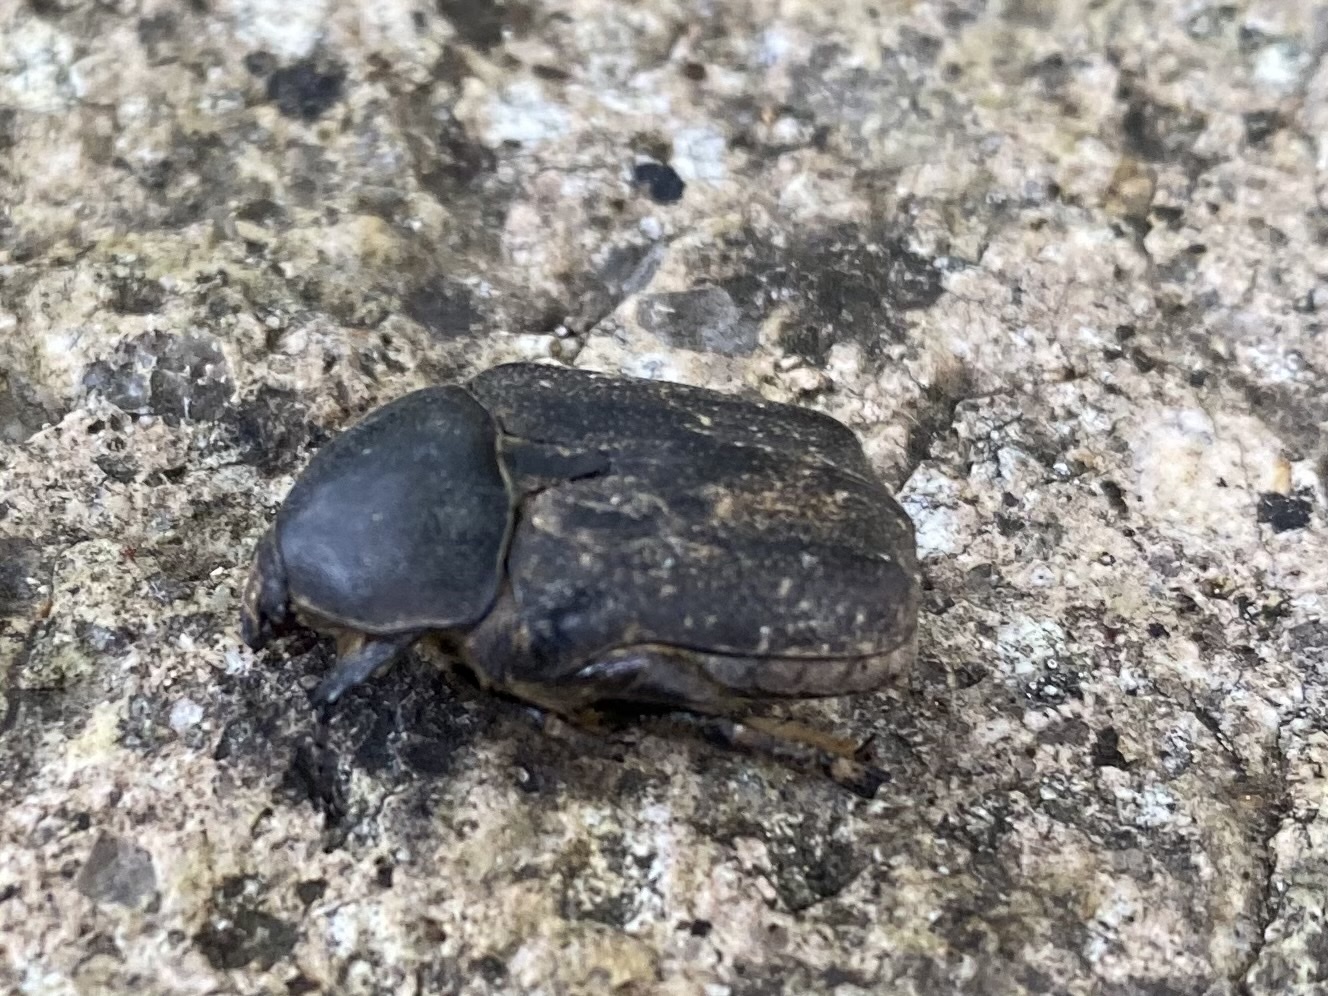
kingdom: Animalia
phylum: Arthropoda
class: Insecta
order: Coleoptera
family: Scarabaeidae
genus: Protaetia
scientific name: Protaetia morio
